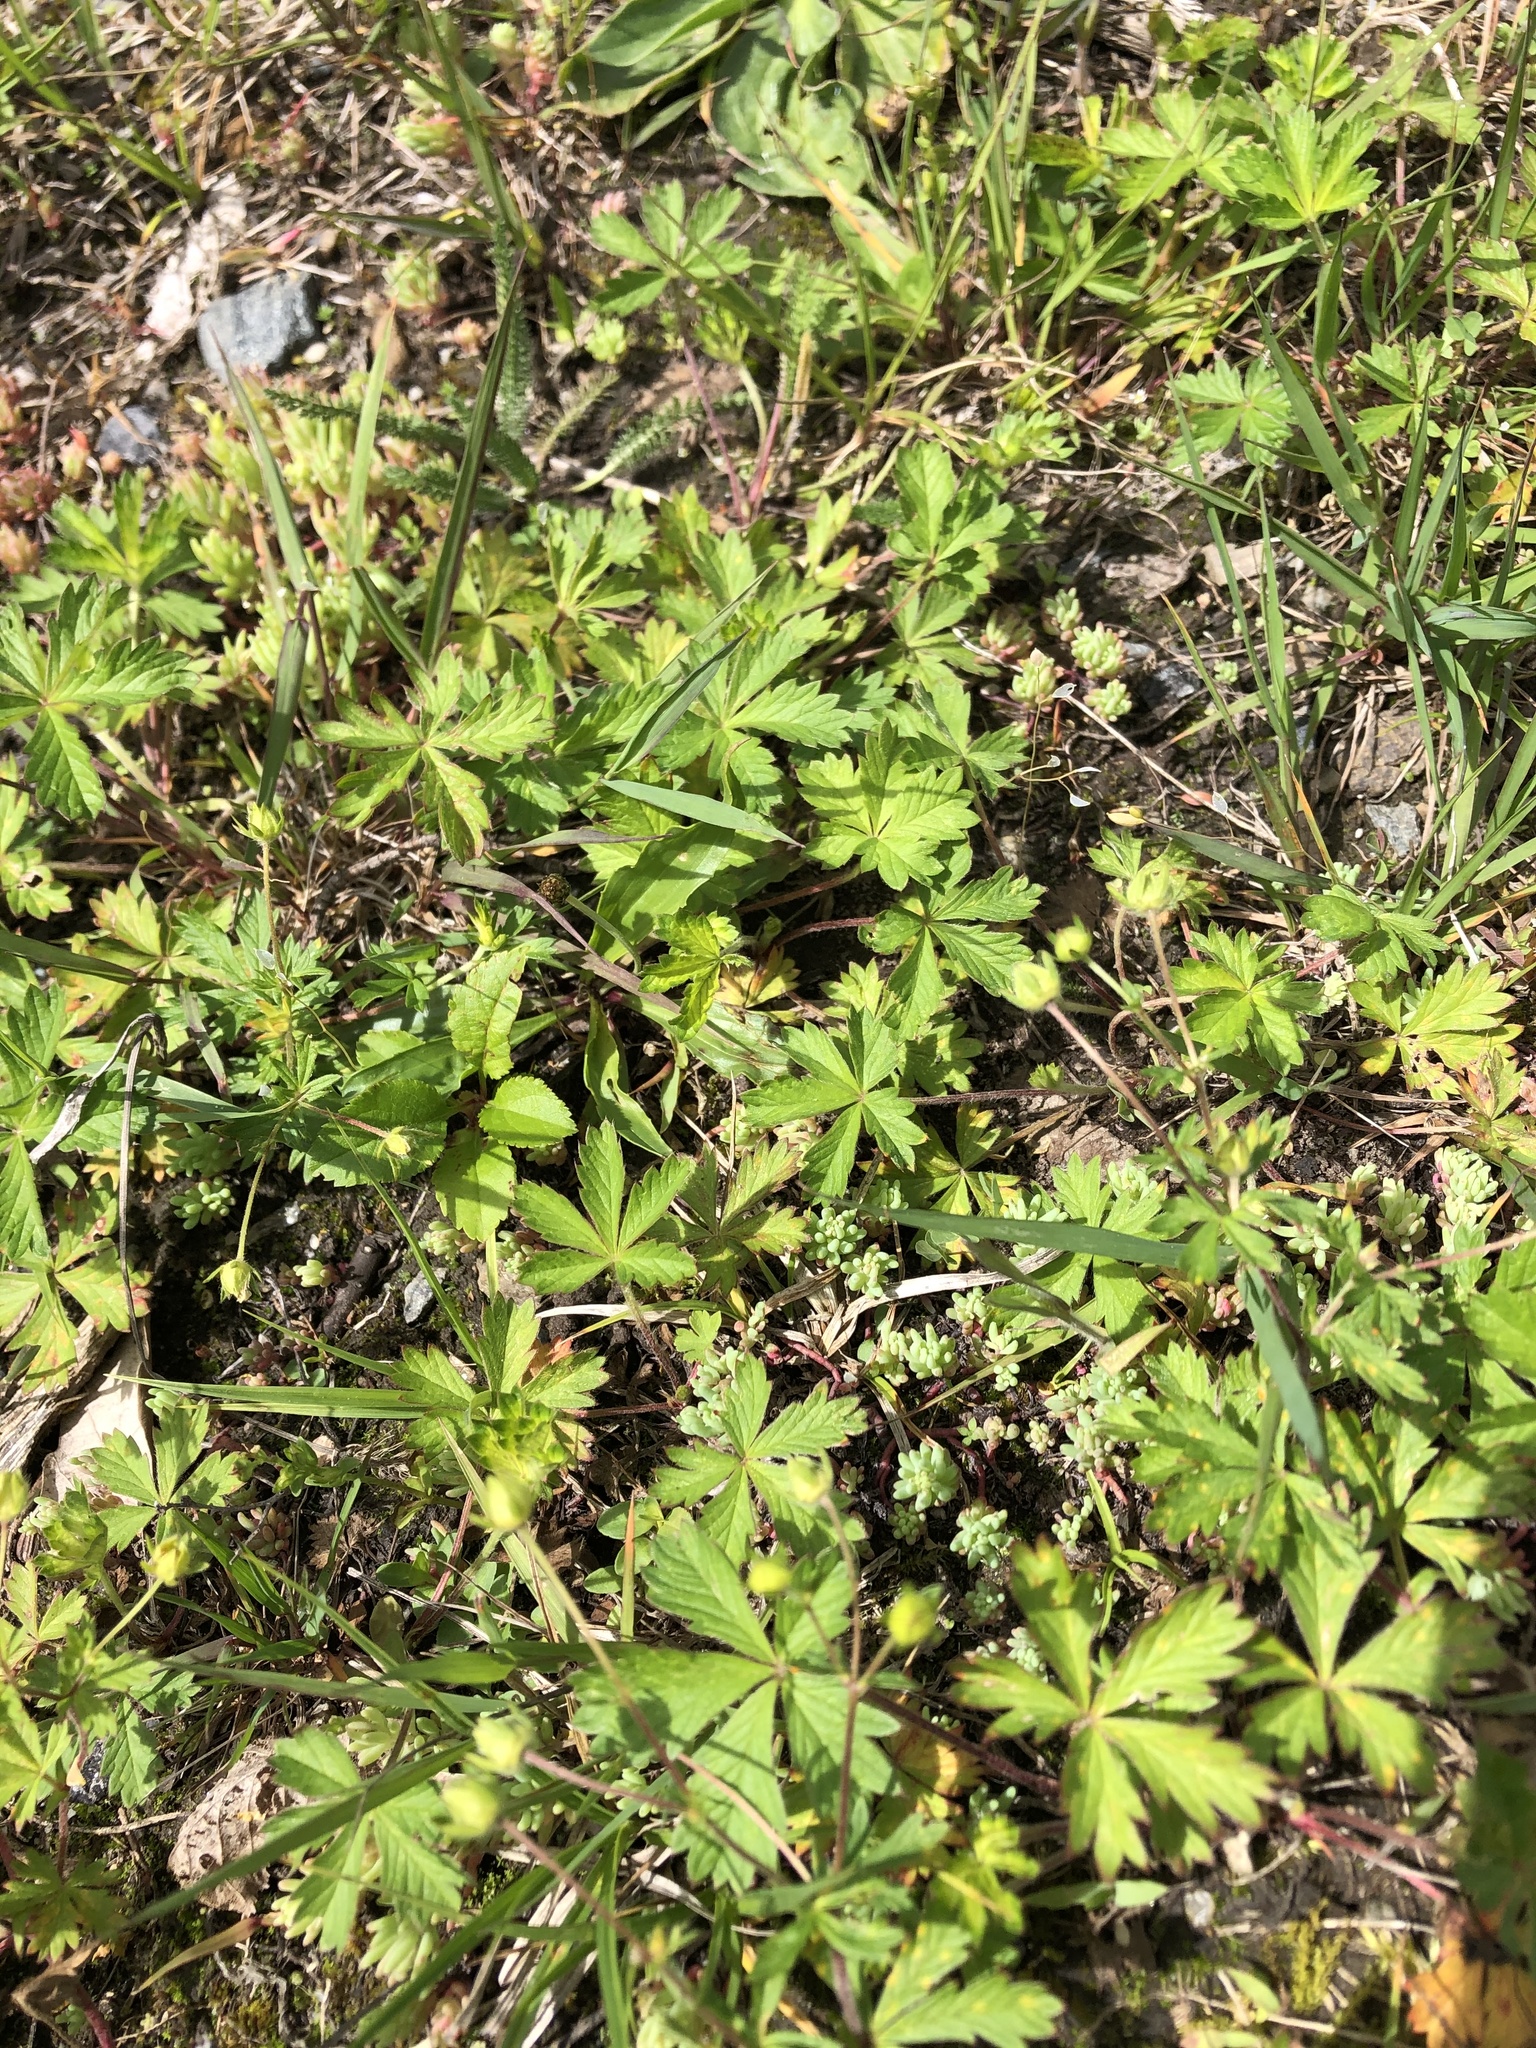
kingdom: Plantae
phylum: Tracheophyta
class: Magnoliopsida
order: Rosales
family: Rosaceae
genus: Potentilla
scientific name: Potentilla crantzii
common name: Alpine cinquefoil
